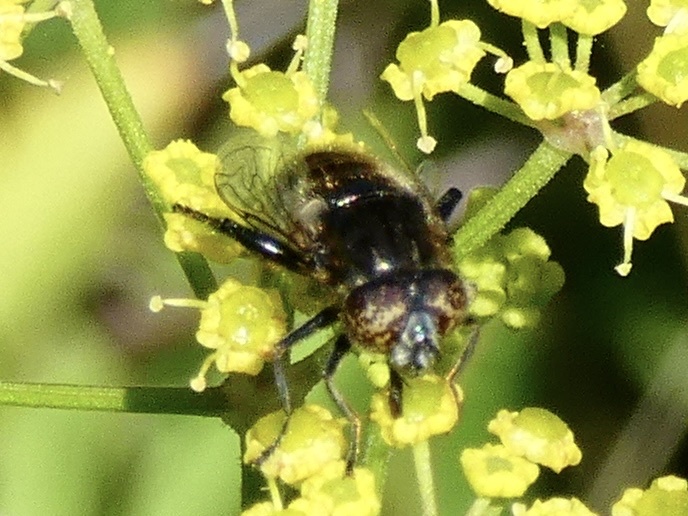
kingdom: Animalia
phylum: Arthropoda
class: Insecta
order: Diptera
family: Syrphidae
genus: Eristalinus
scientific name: Eristalinus sepulchralis
